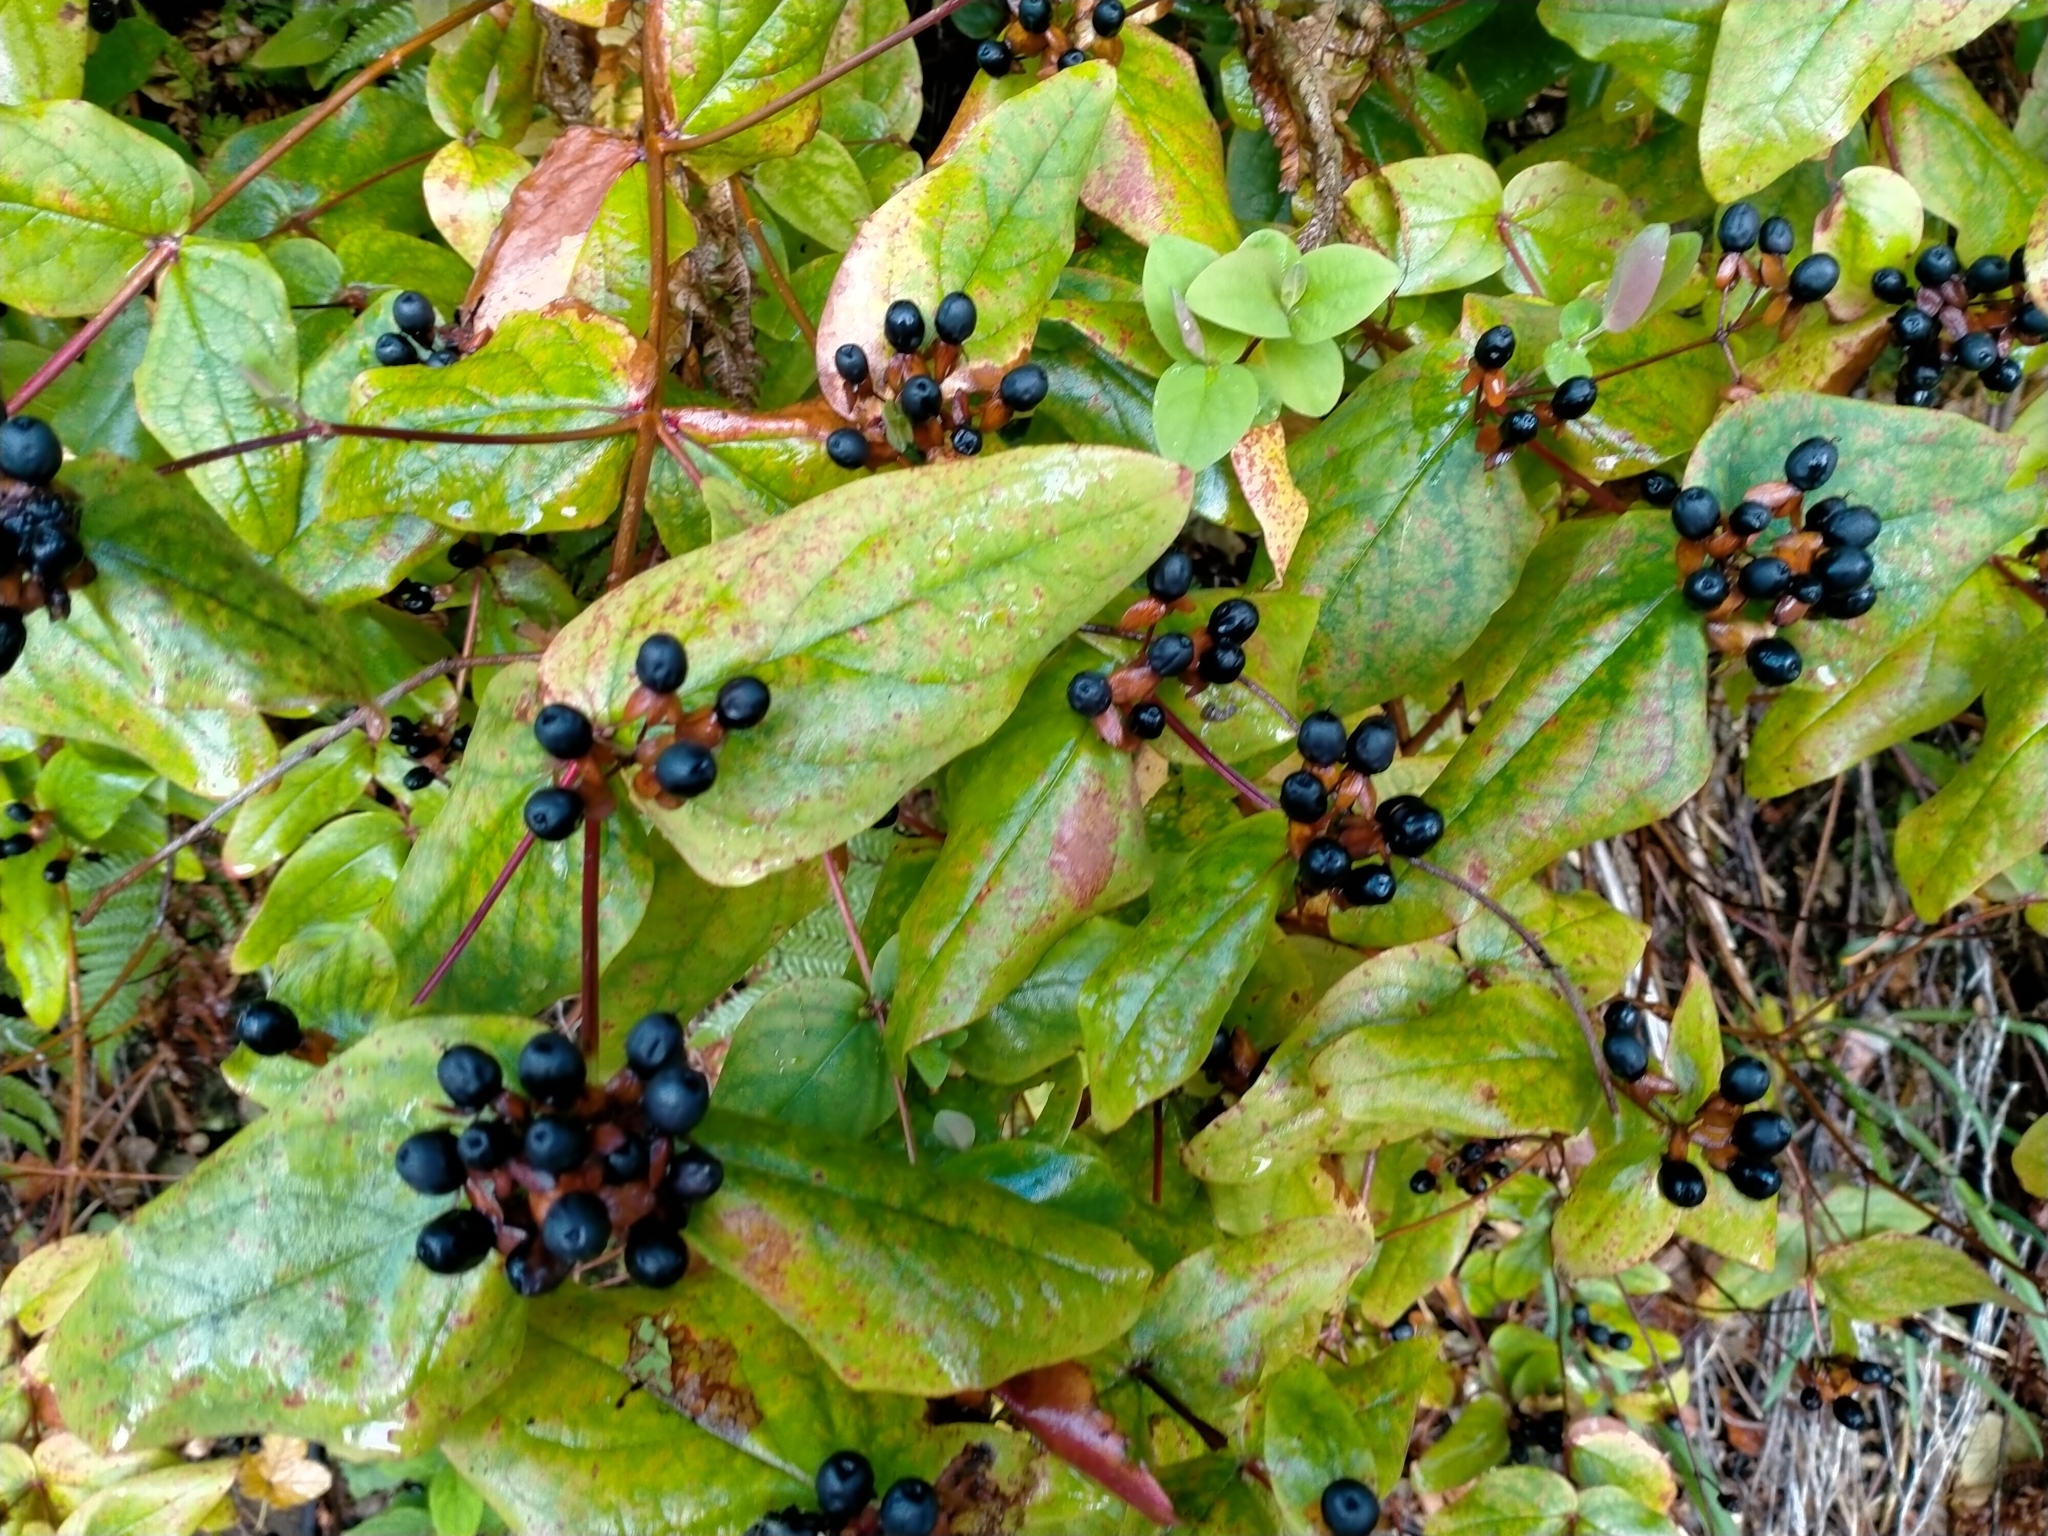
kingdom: Plantae
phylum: Tracheophyta
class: Magnoliopsida
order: Malpighiales
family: Hypericaceae
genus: Hypericum
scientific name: Hypericum androsaemum
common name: Sweet-amber
